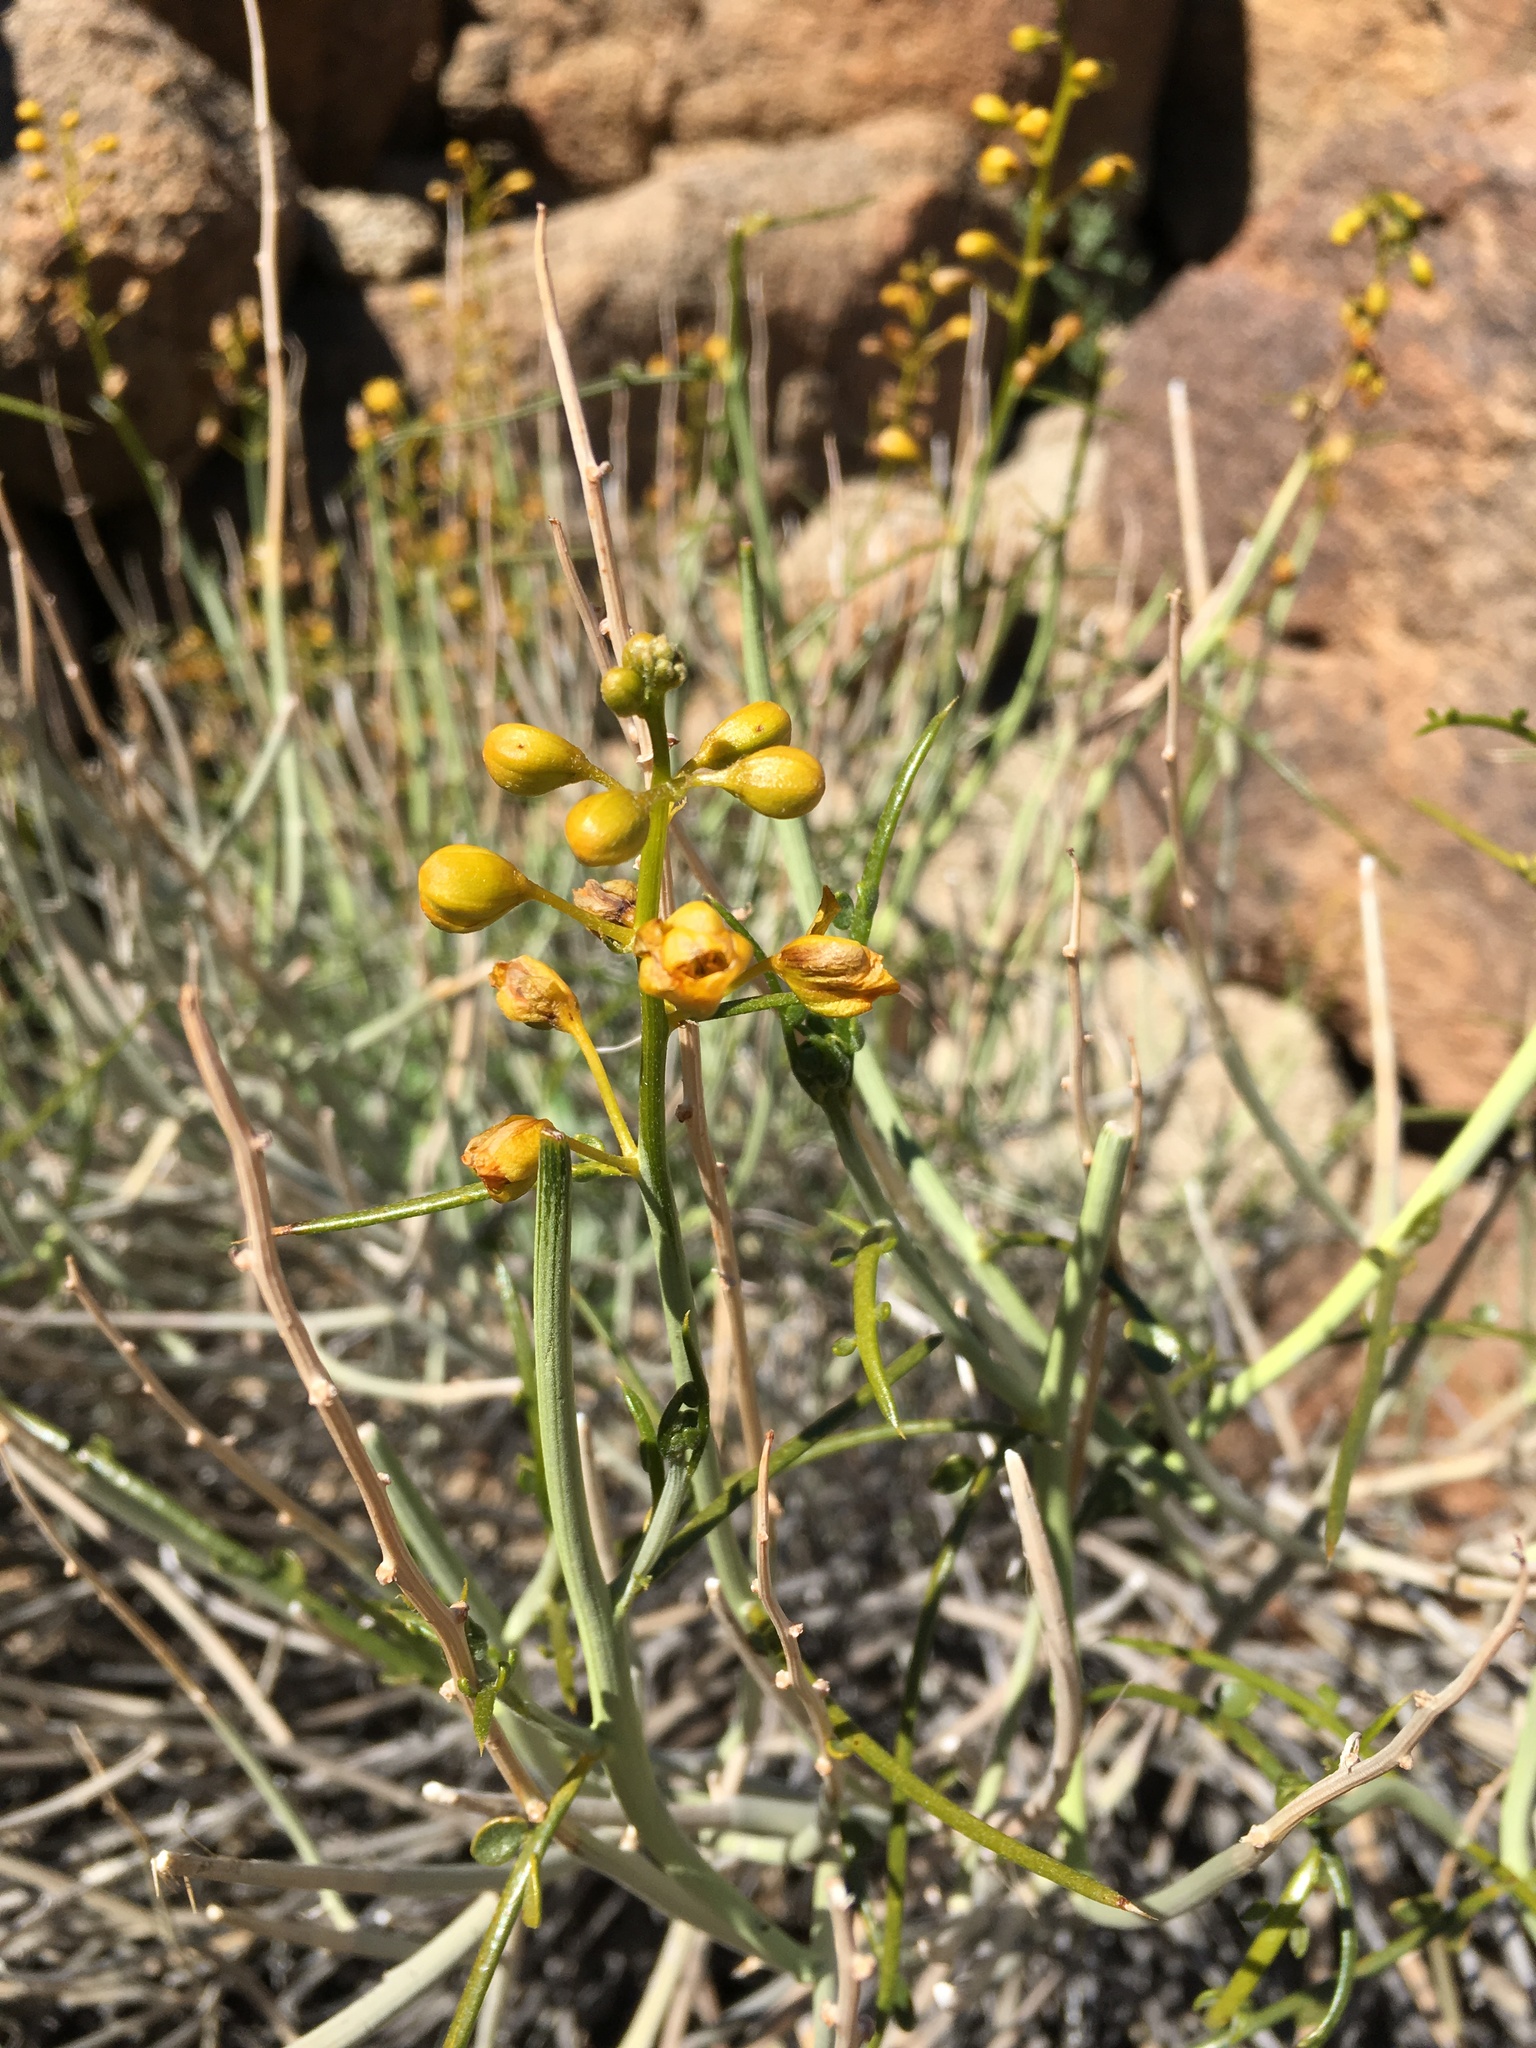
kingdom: Plantae
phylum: Tracheophyta
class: Magnoliopsida
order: Fabales
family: Fabaceae
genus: Senna
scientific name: Senna armata
